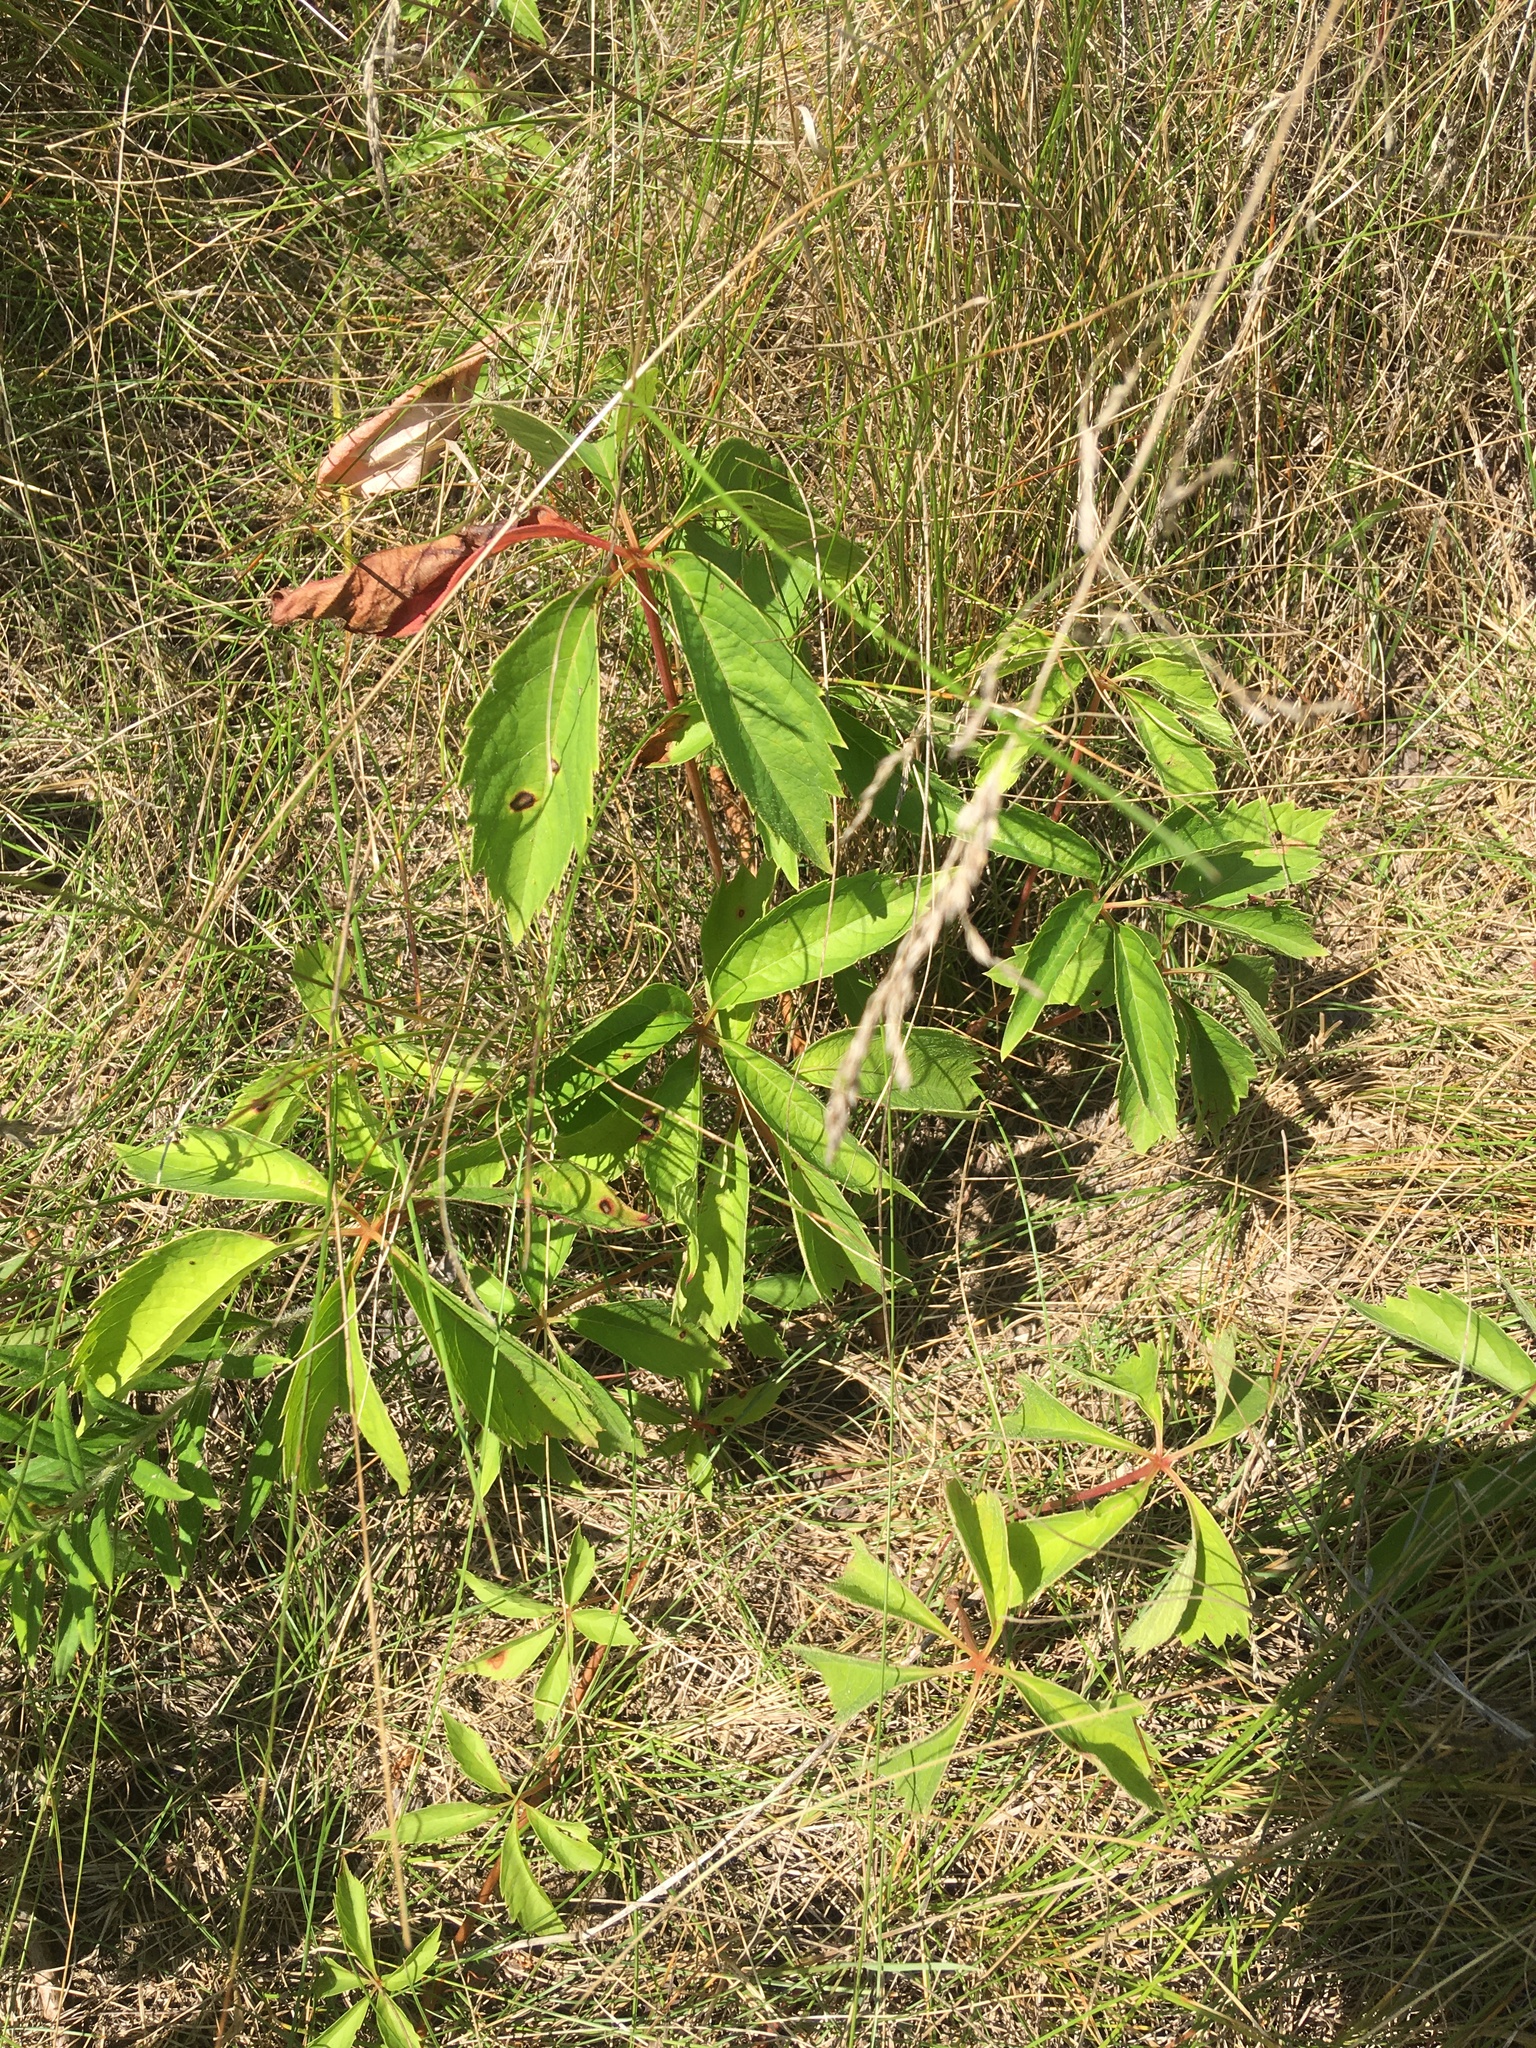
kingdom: Plantae
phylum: Tracheophyta
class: Magnoliopsida
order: Vitales
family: Vitaceae
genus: Parthenocissus
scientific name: Parthenocissus quinquefolia
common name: Virginia-creeper
